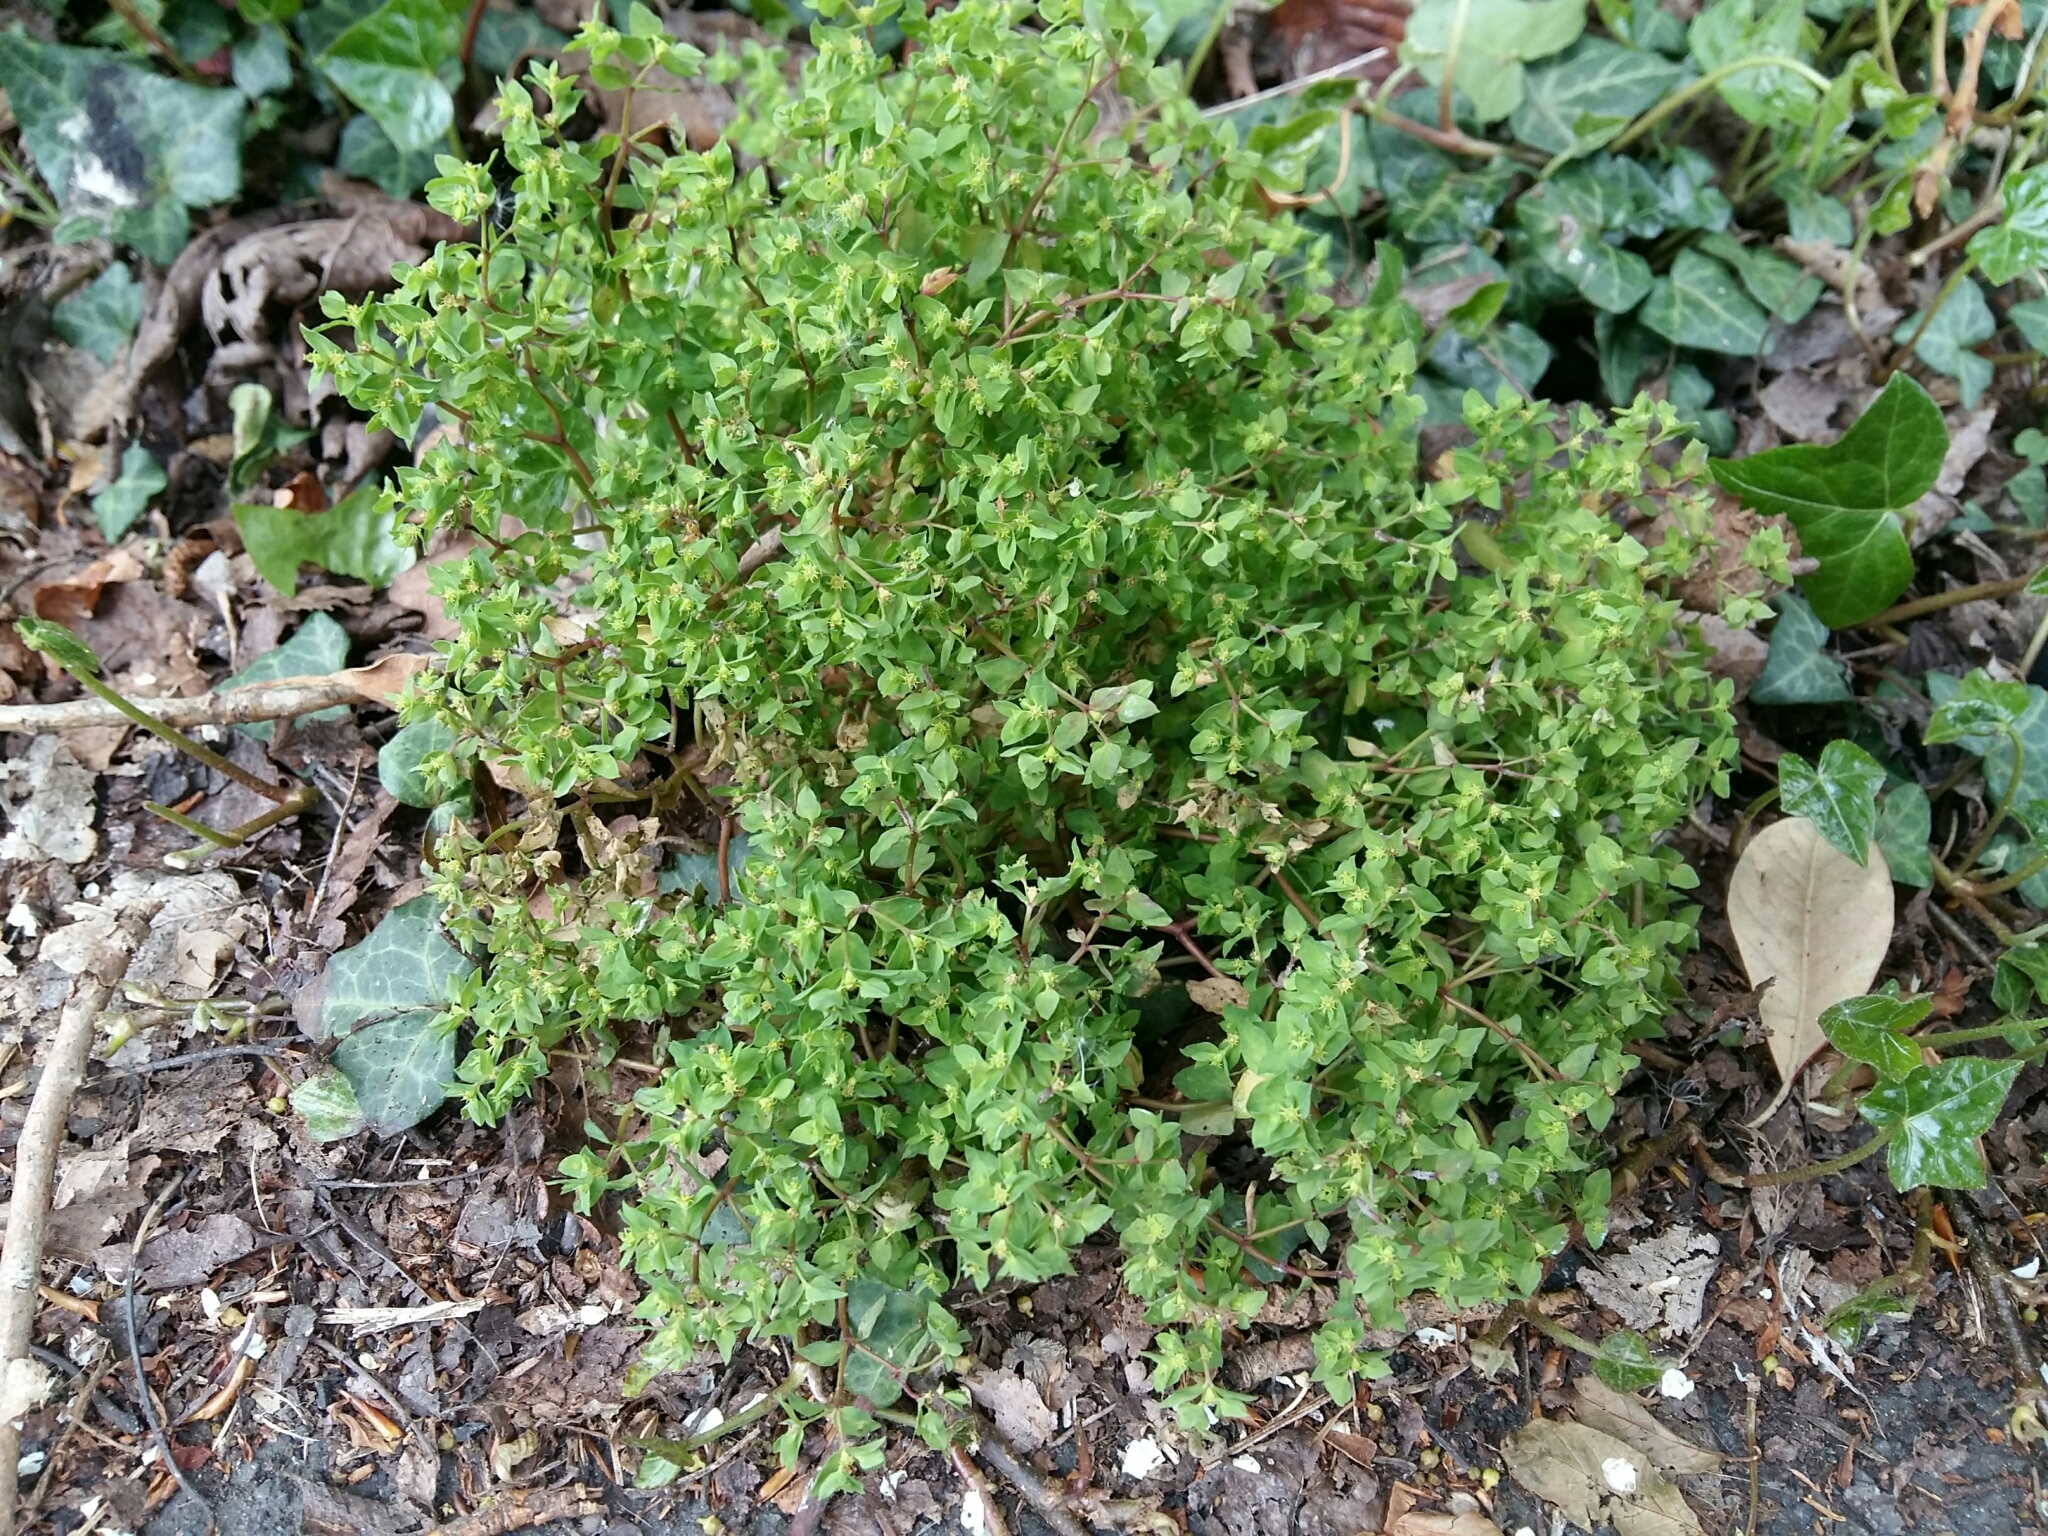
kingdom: Plantae
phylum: Tracheophyta
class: Magnoliopsida
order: Malpighiales
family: Euphorbiaceae
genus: Euphorbia
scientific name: Euphorbia peplus
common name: Petty spurge
